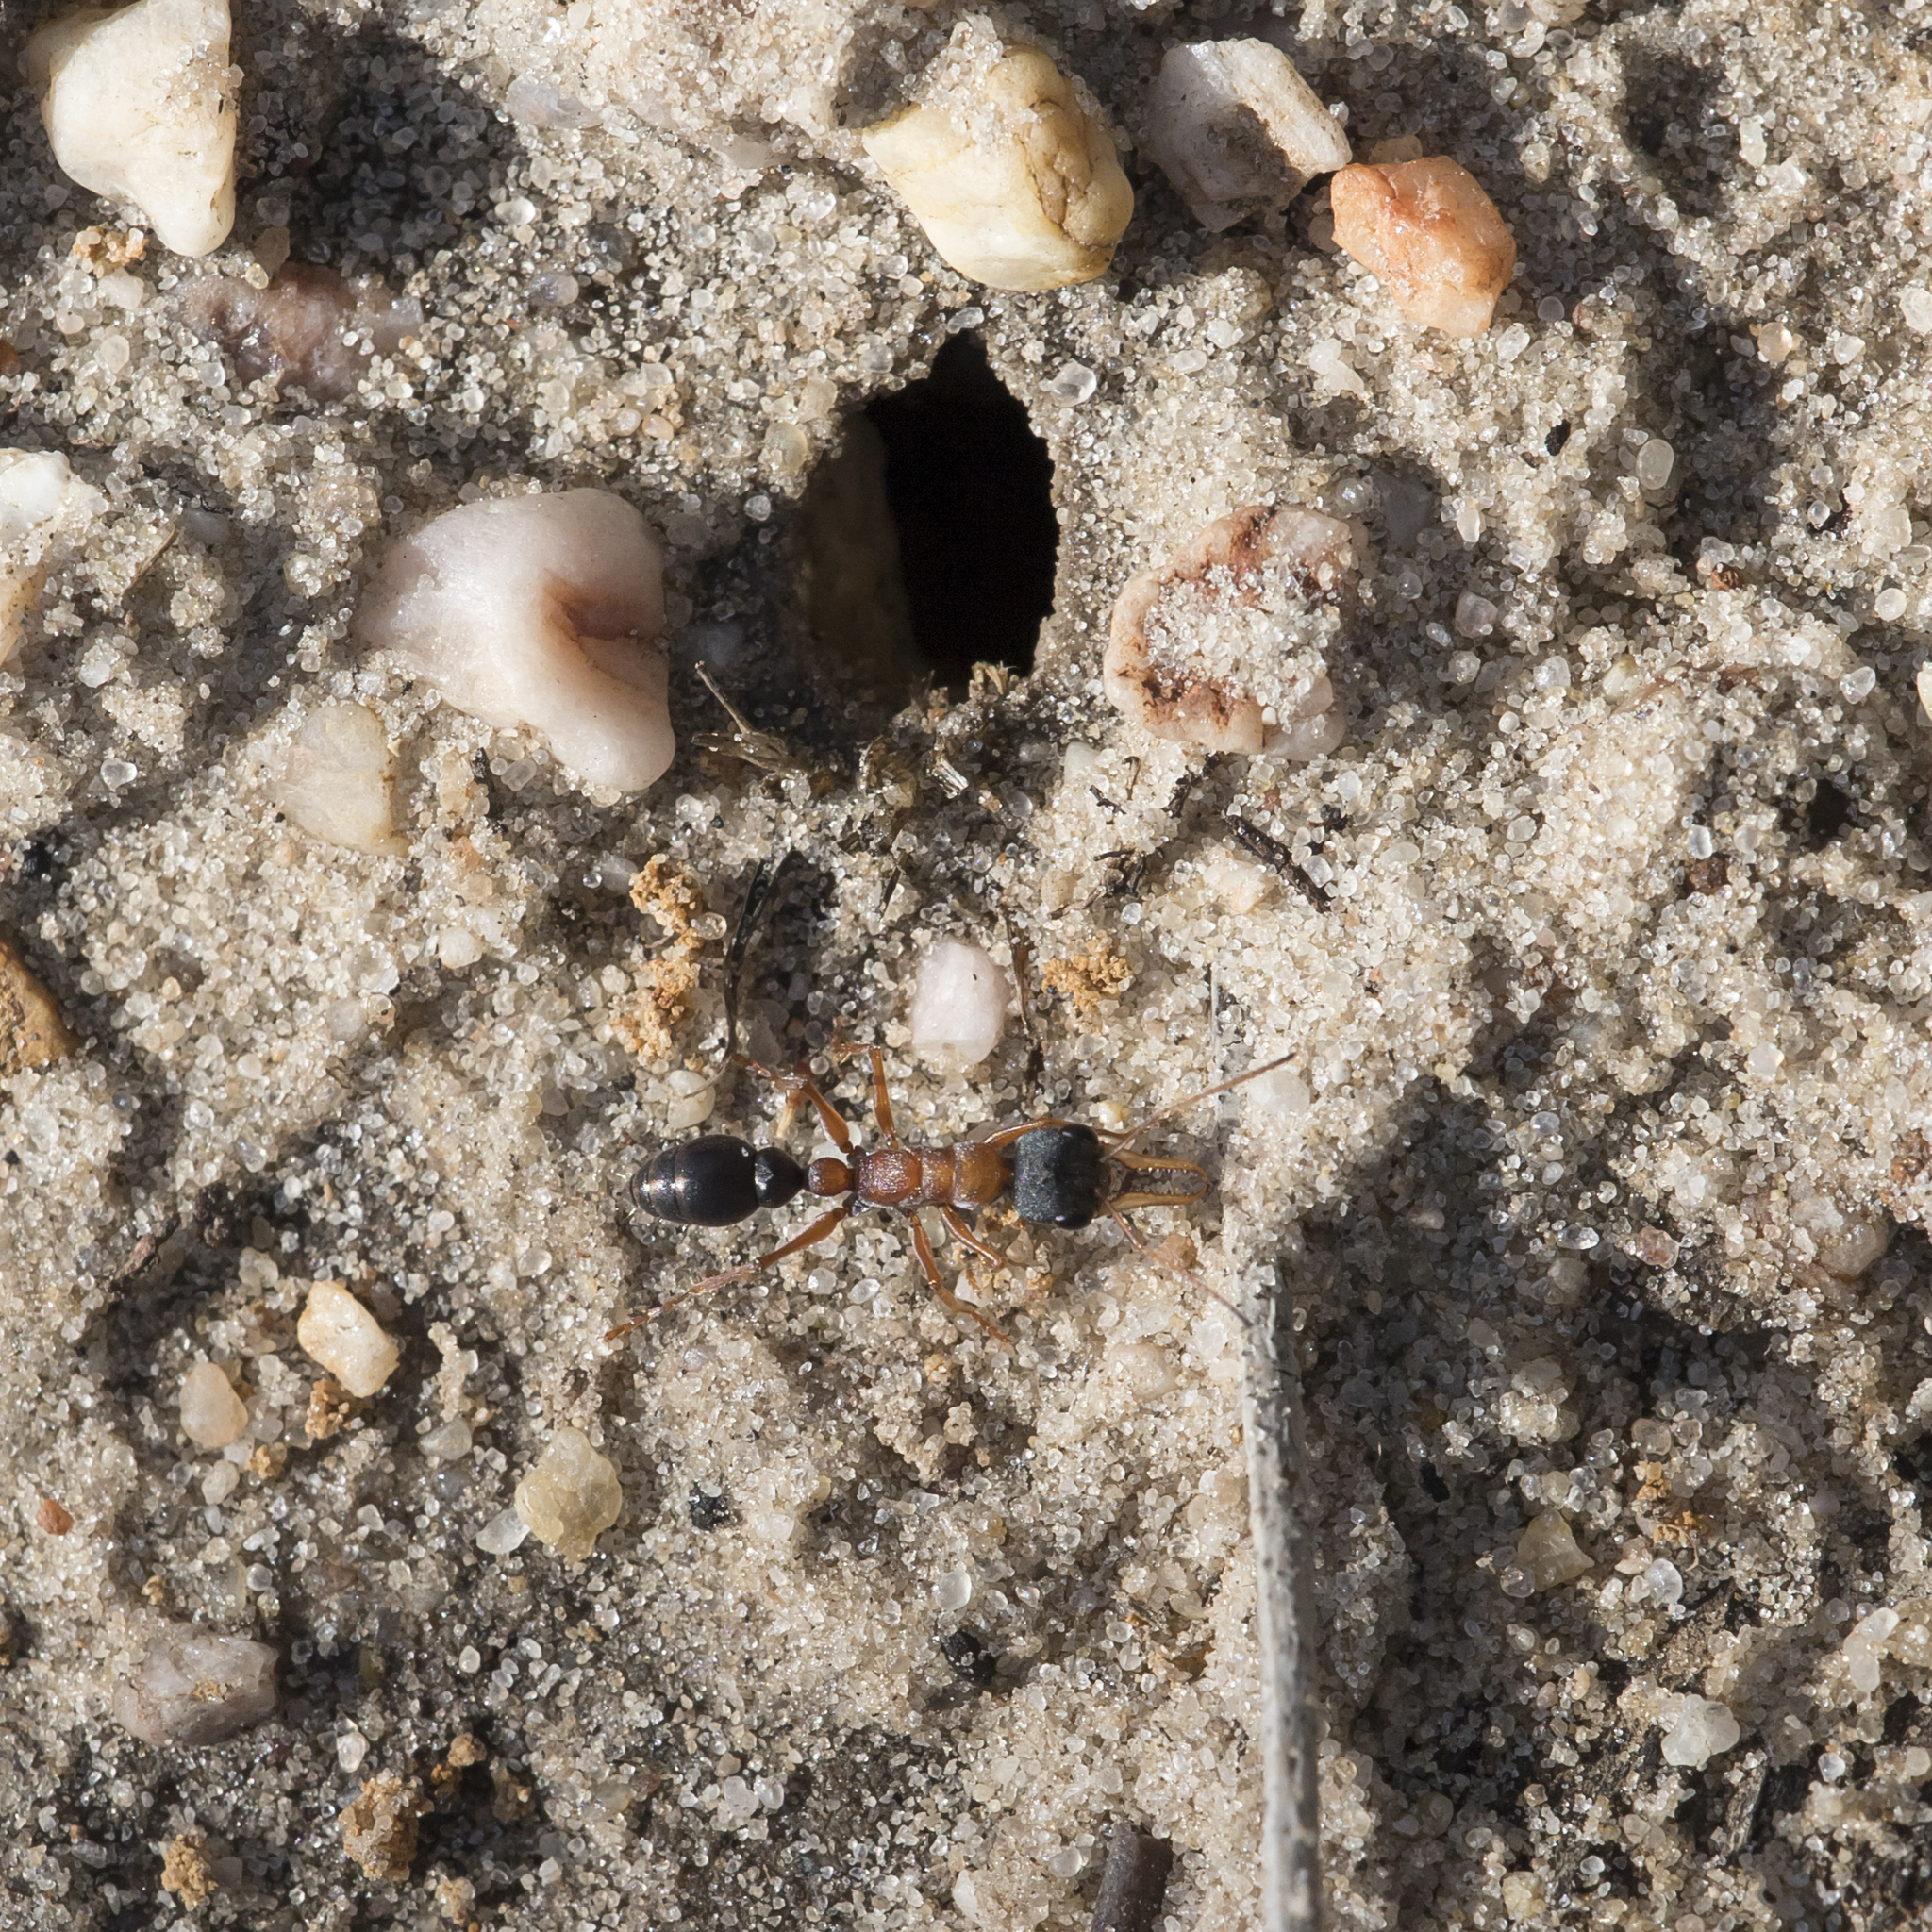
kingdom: Animalia
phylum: Arthropoda
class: Insecta
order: Hymenoptera
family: Formicidae
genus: Myrmecia
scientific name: Myrmecia elegans
